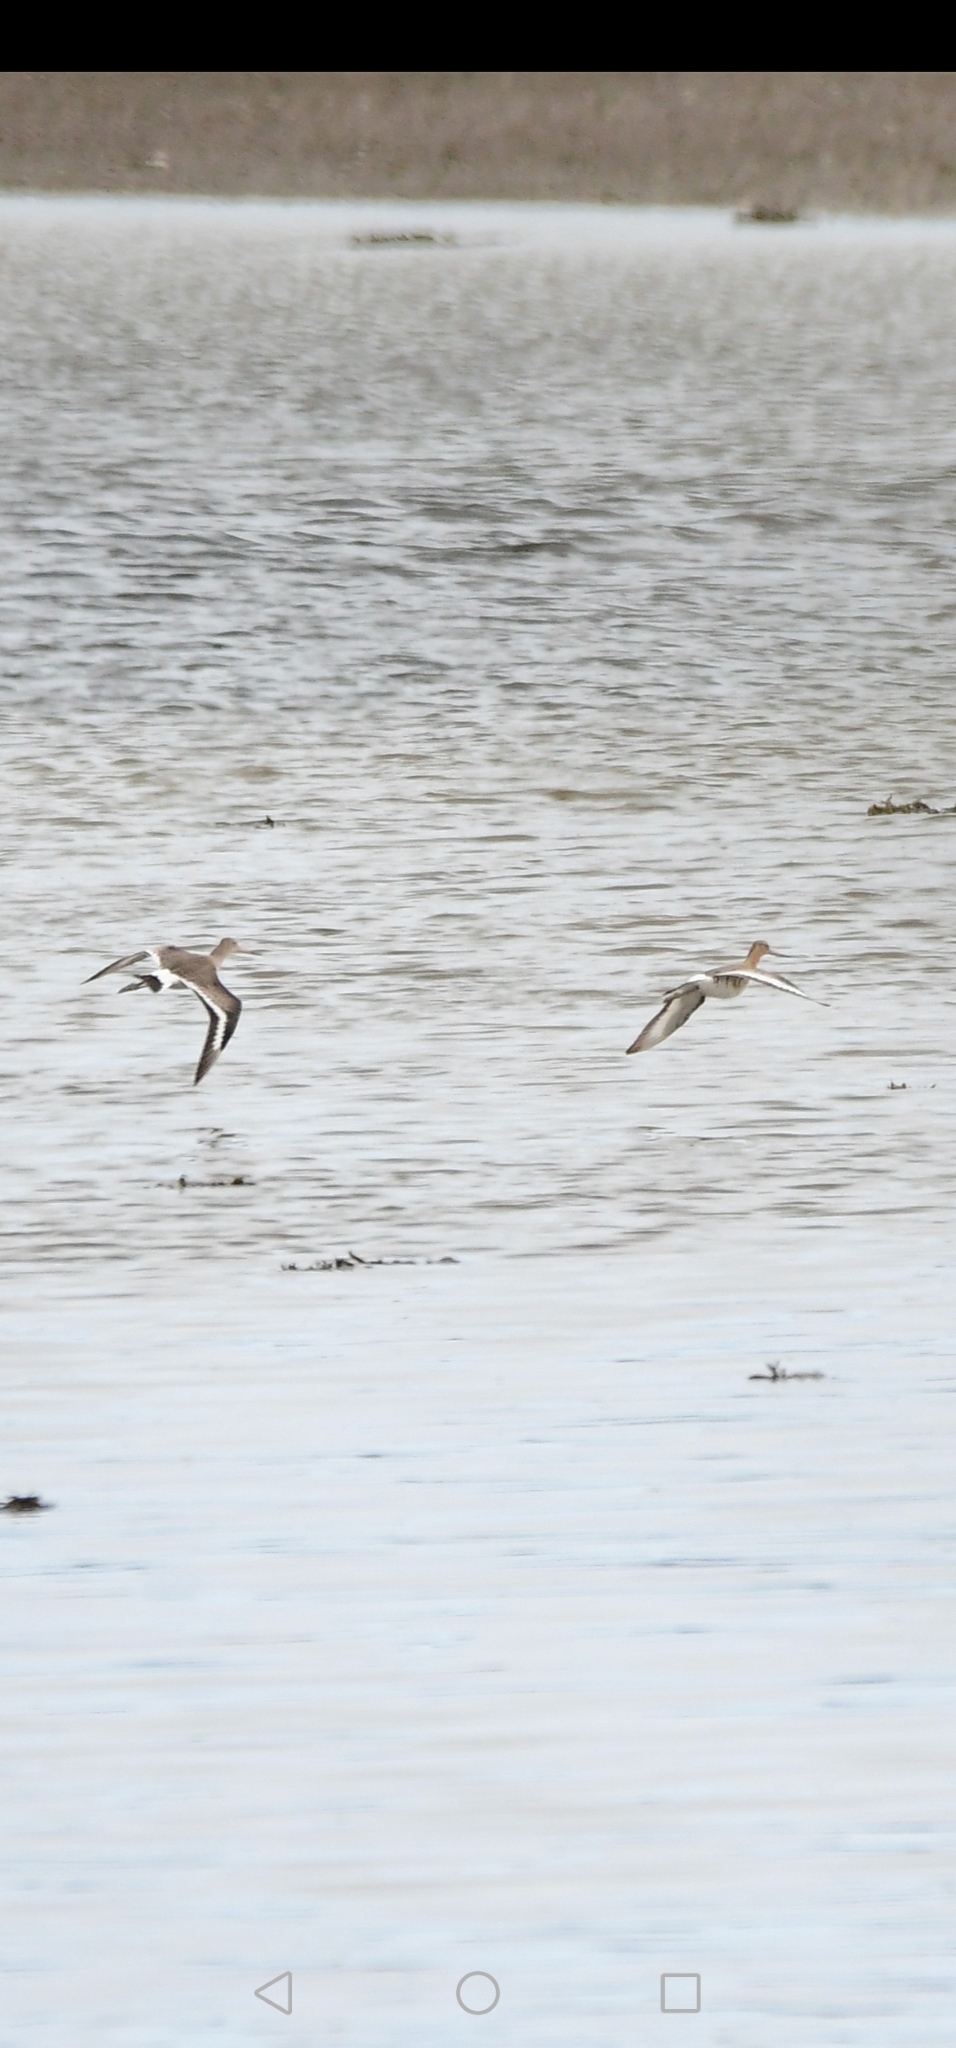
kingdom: Animalia
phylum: Chordata
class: Aves
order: Charadriiformes
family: Scolopacidae
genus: Limosa
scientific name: Limosa limosa
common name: Black-tailed godwit
